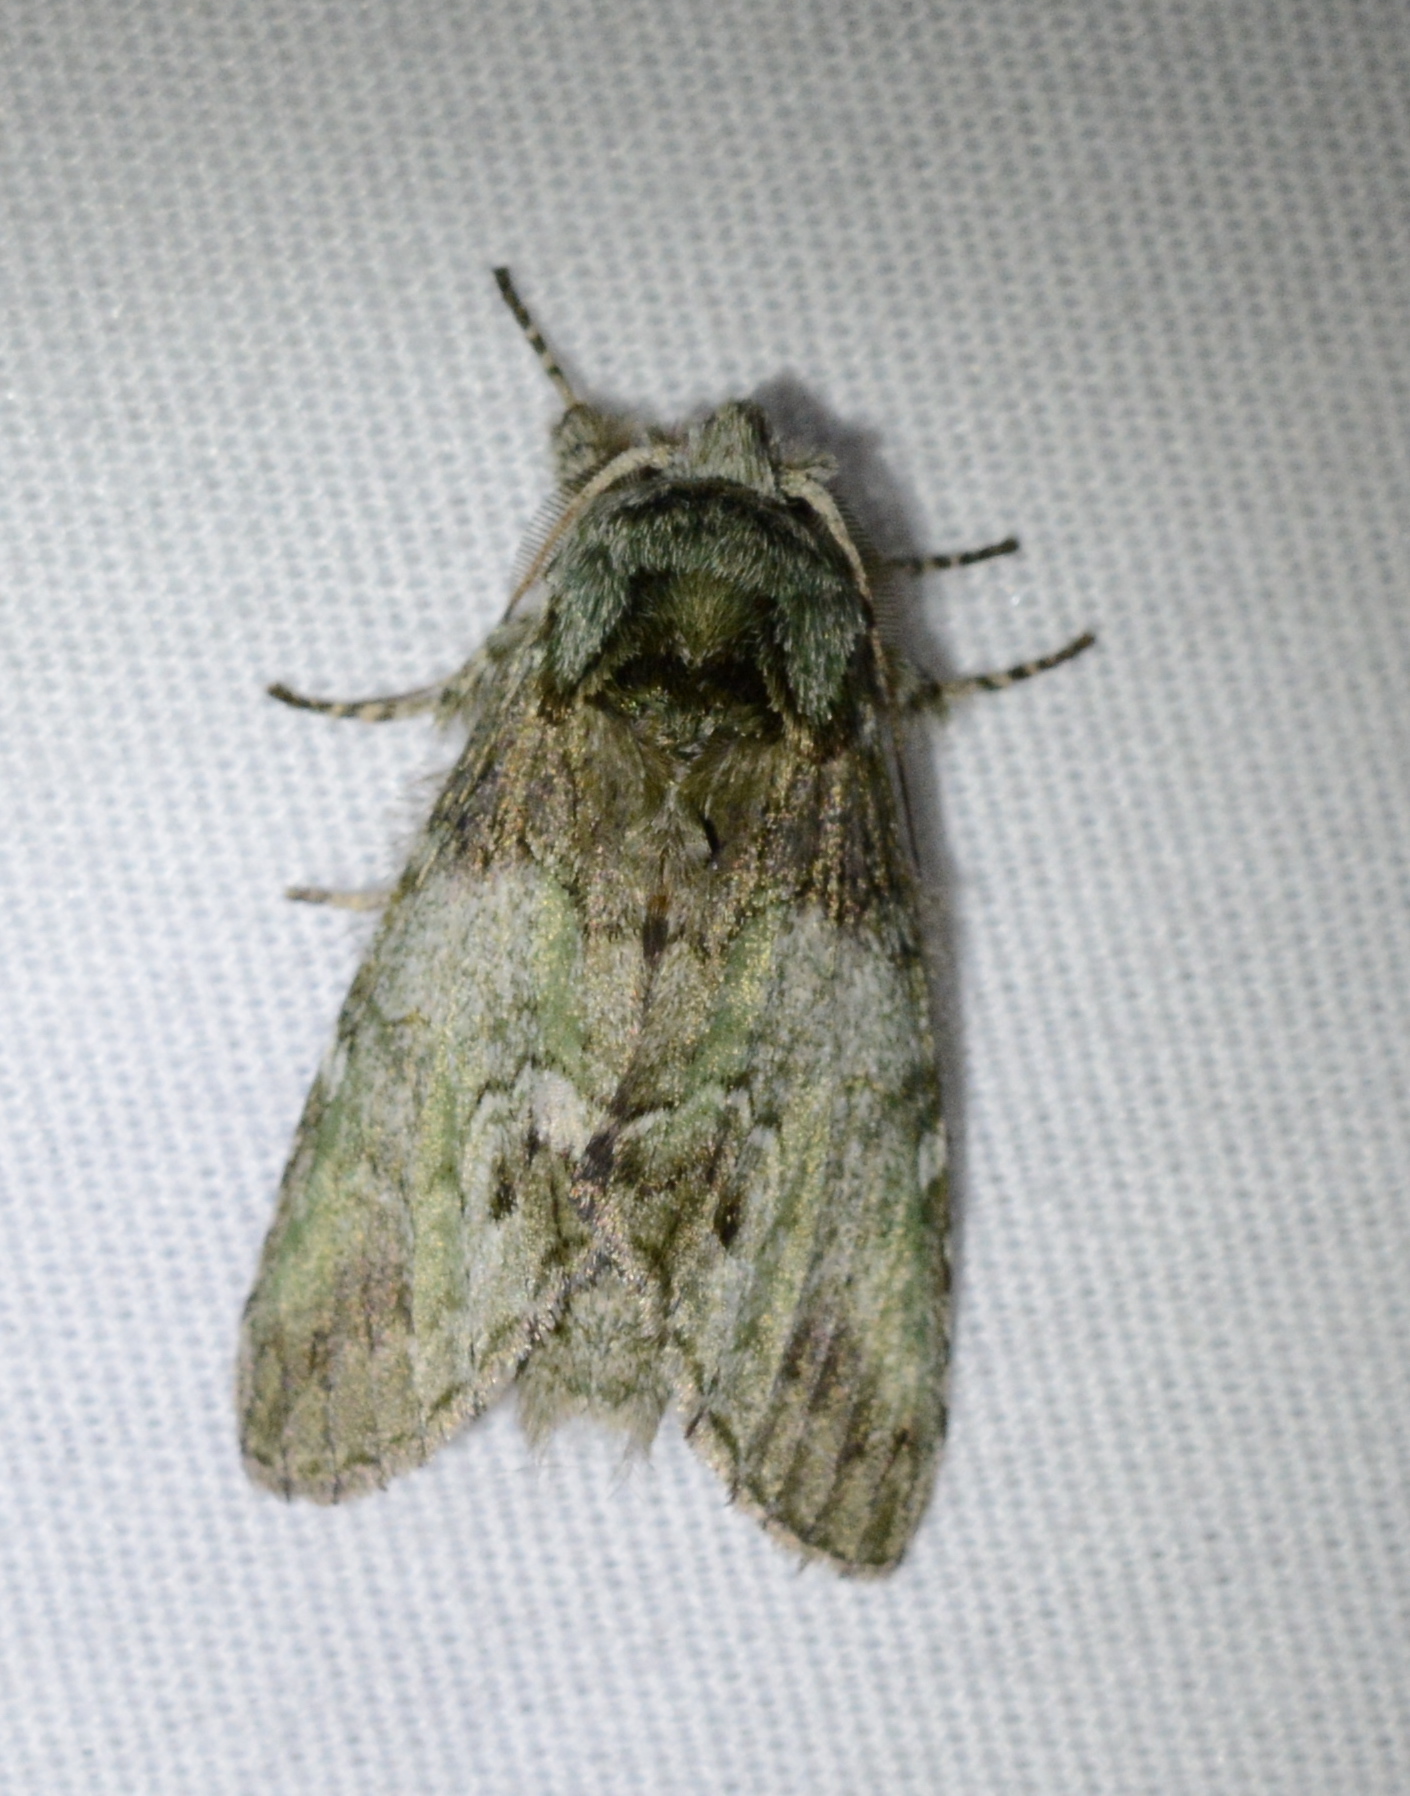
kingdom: Animalia
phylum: Arthropoda
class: Insecta
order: Lepidoptera
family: Notodontidae
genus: Macrurocampa
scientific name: Macrurocampa marthesia
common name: Mottled prominent
